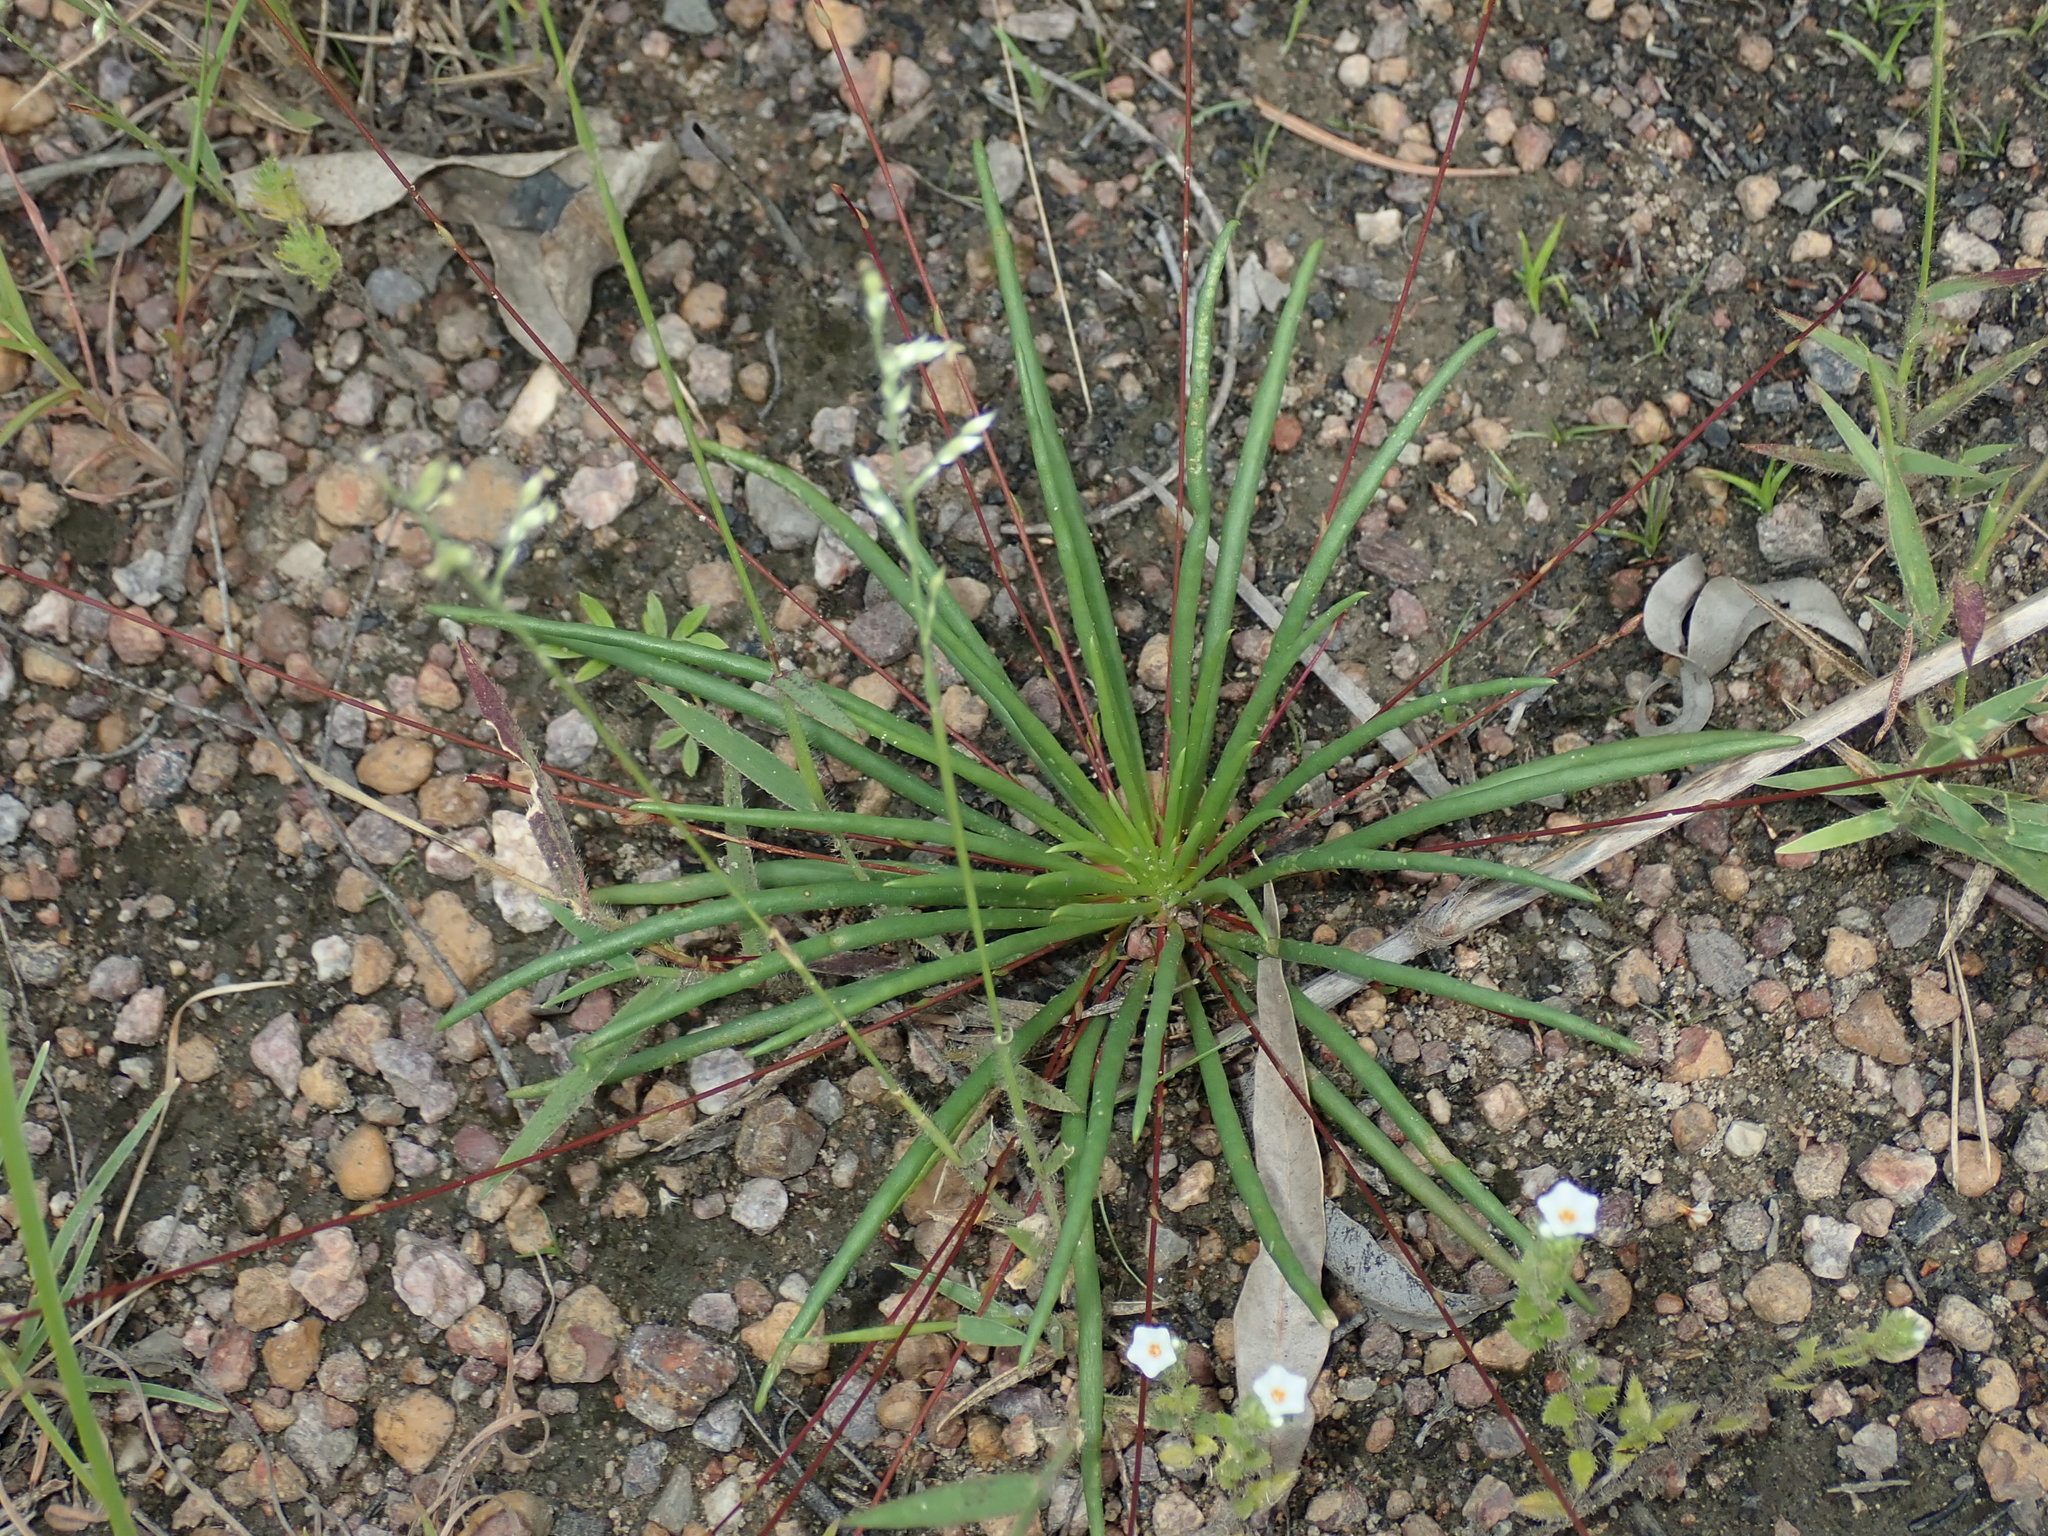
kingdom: Plantae
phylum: Tracheophyta
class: Magnoliopsida
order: Caryophyllales
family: Montiaceae
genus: Rumicastrum
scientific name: Rumicastrum uniflorum
